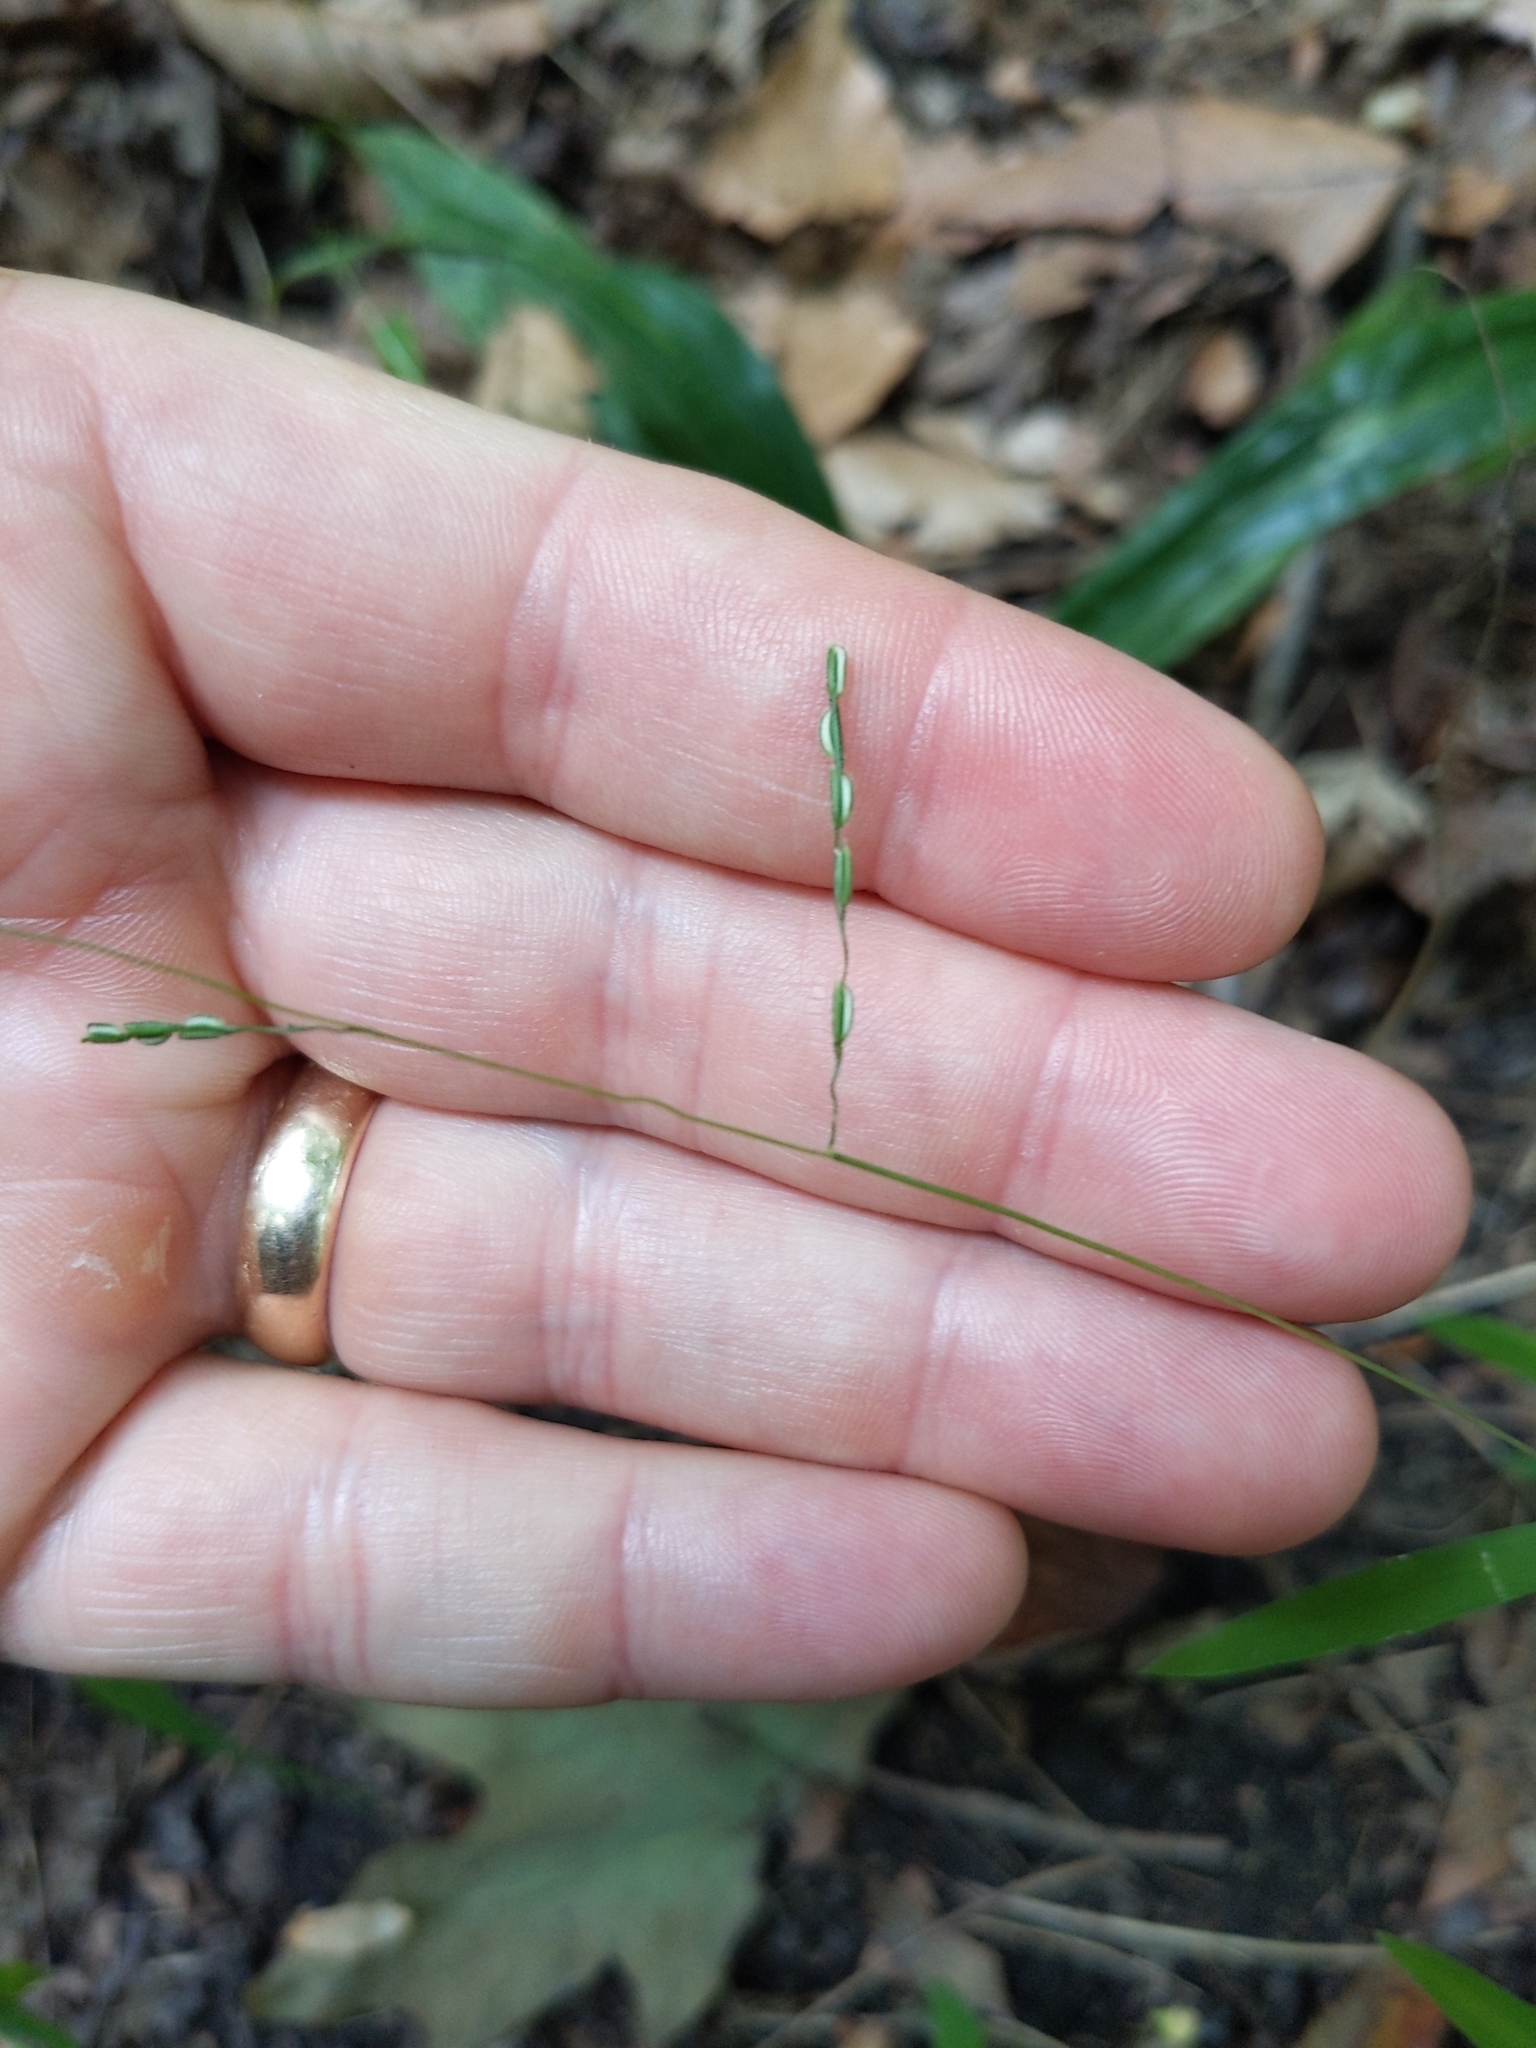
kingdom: Plantae
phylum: Tracheophyta
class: Liliopsida
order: Poales
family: Poaceae
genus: Leersia
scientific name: Leersia virginica
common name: White cutgrass
